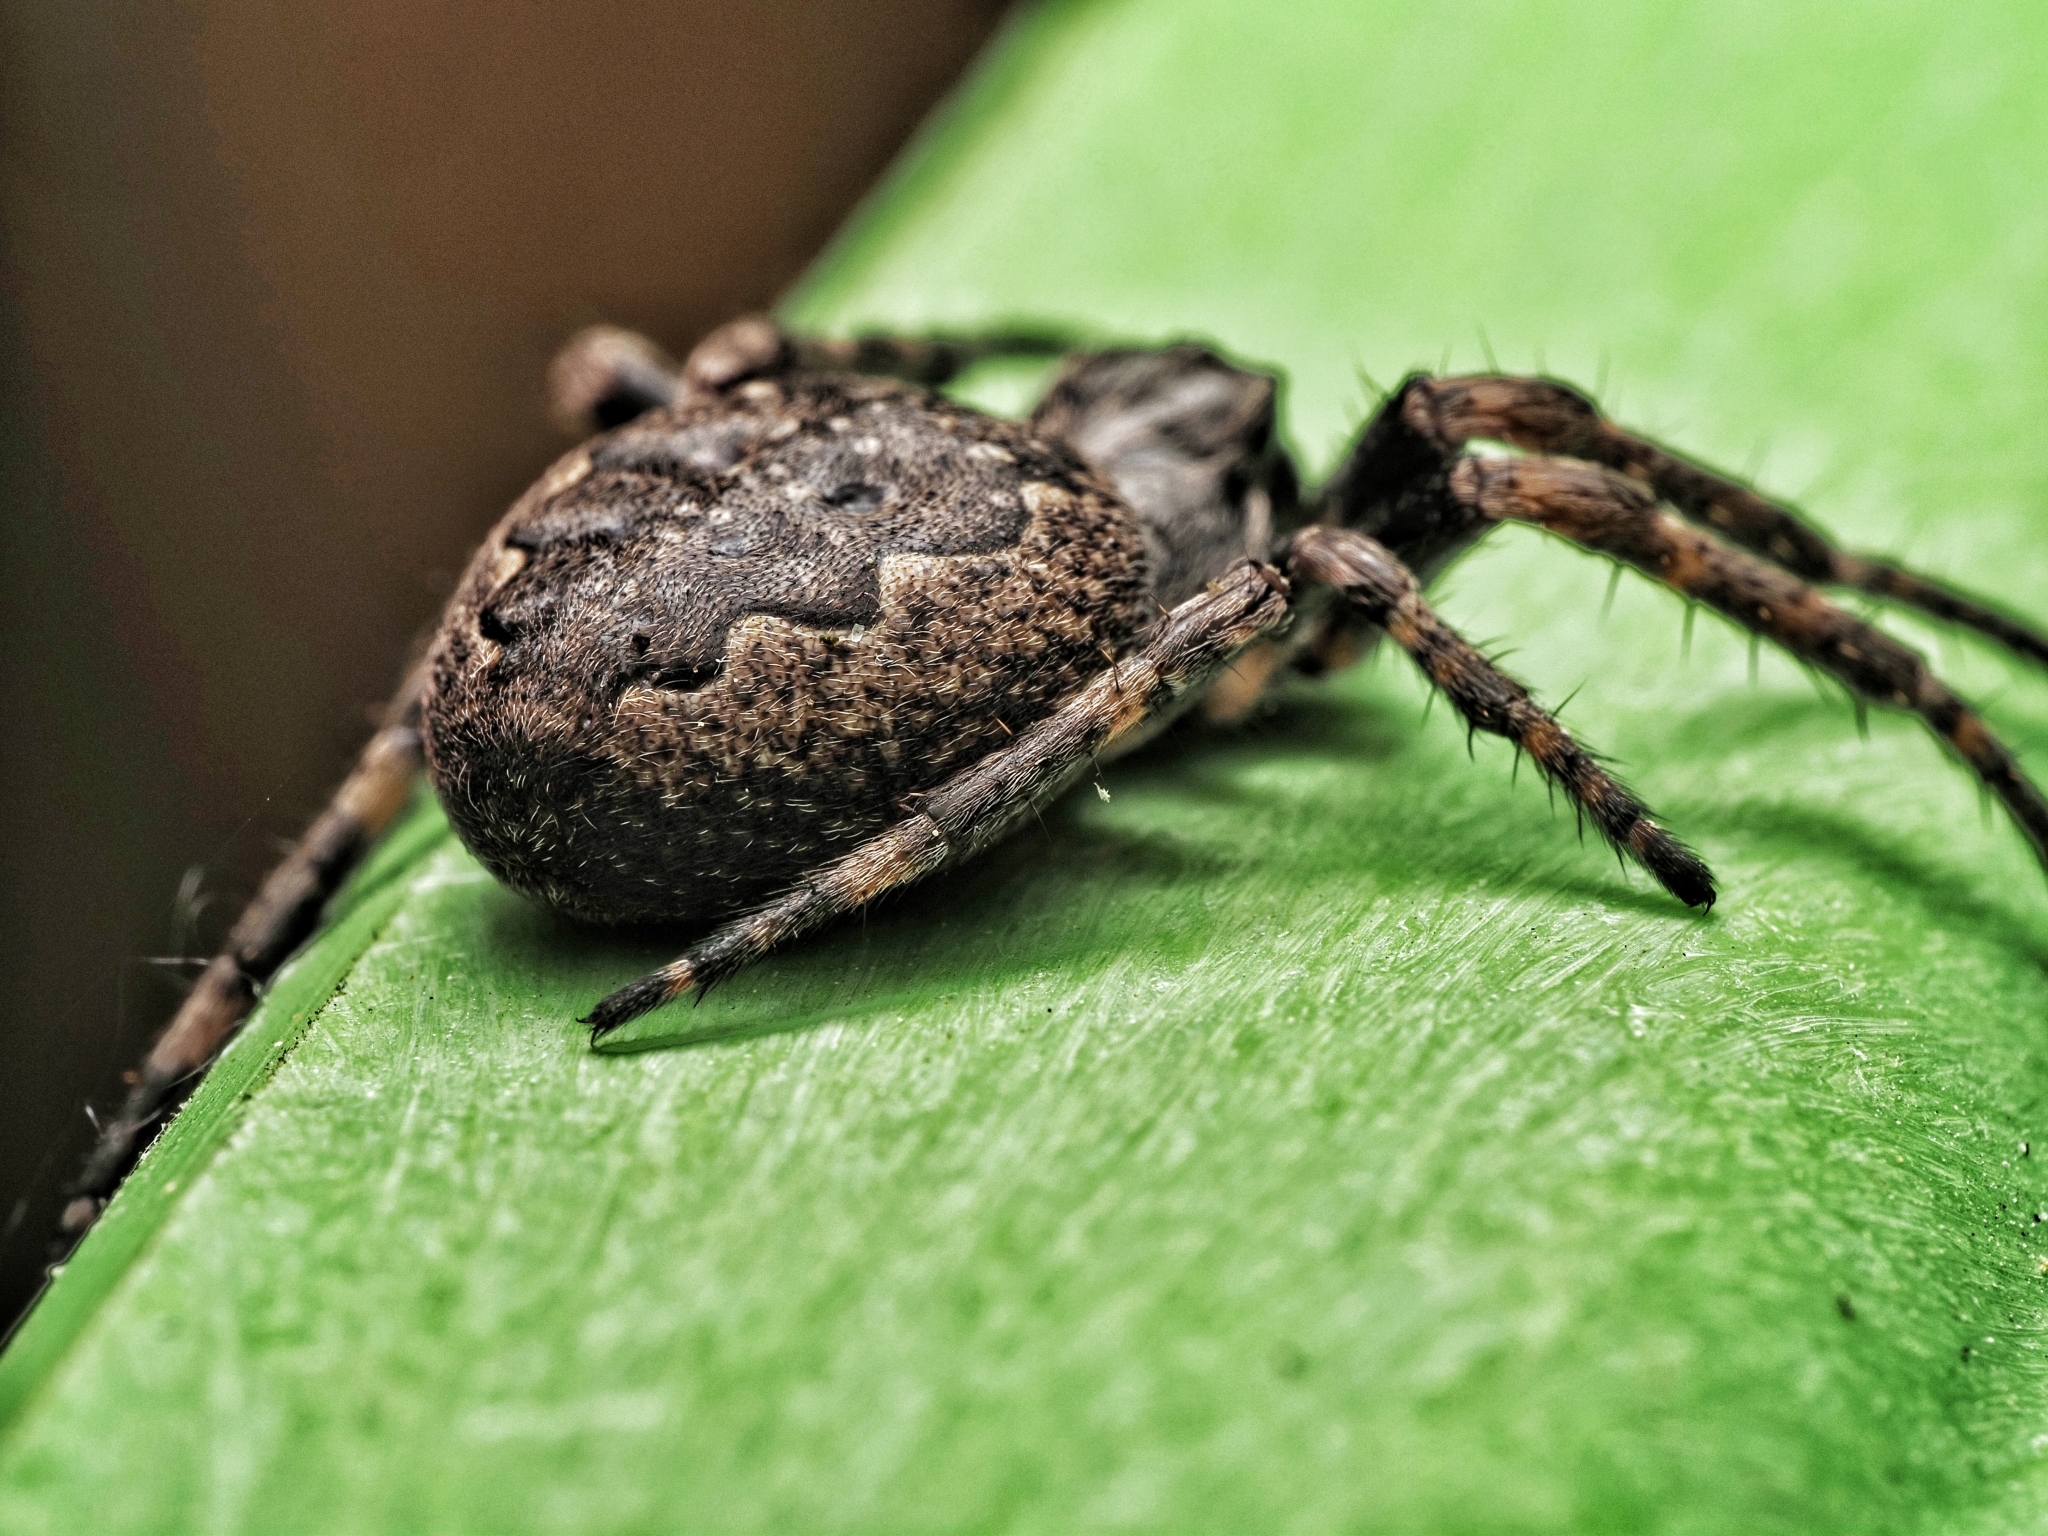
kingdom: Animalia
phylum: Arthropoda
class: Arachnida
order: Araneae
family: Araneidae
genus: Nuctenea
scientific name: Nuctenea umbratica
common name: Toad spider
